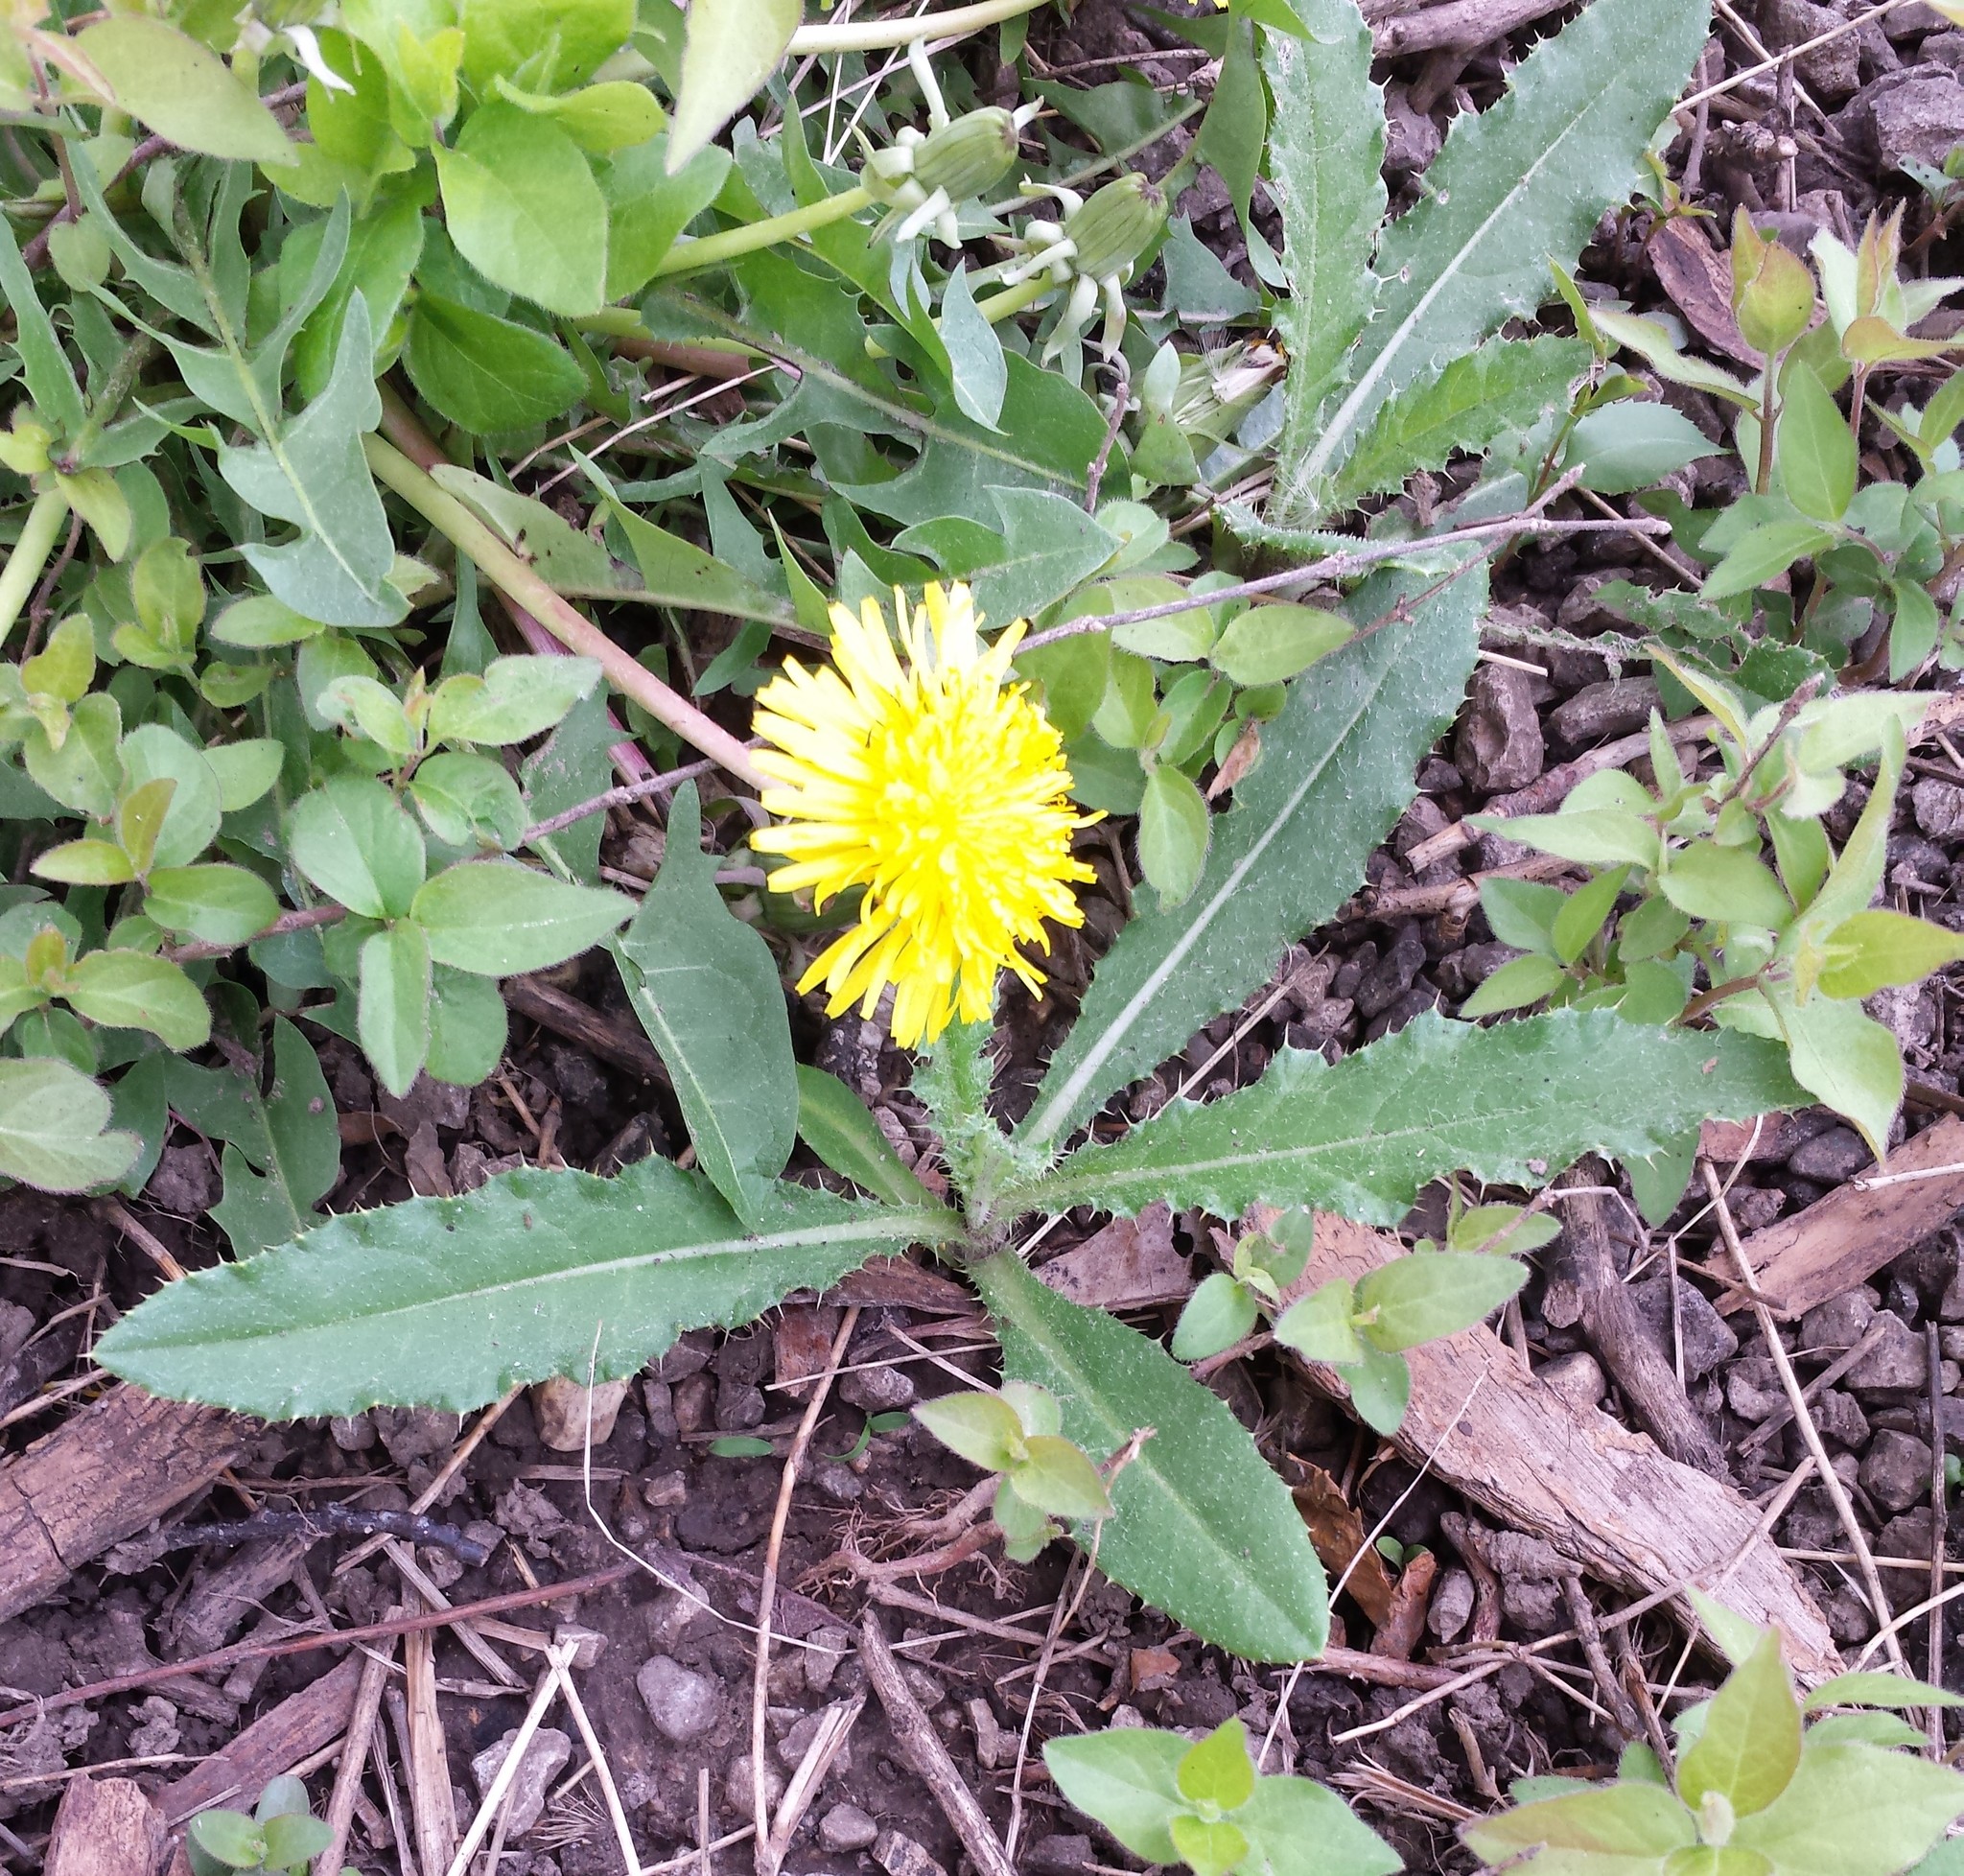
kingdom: Plantae
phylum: Tracheophyta
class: Magnoliopsida
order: Asterales
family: Asteraceae
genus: Cirsium
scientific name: Cirsium arvense
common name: Creeping thistle
